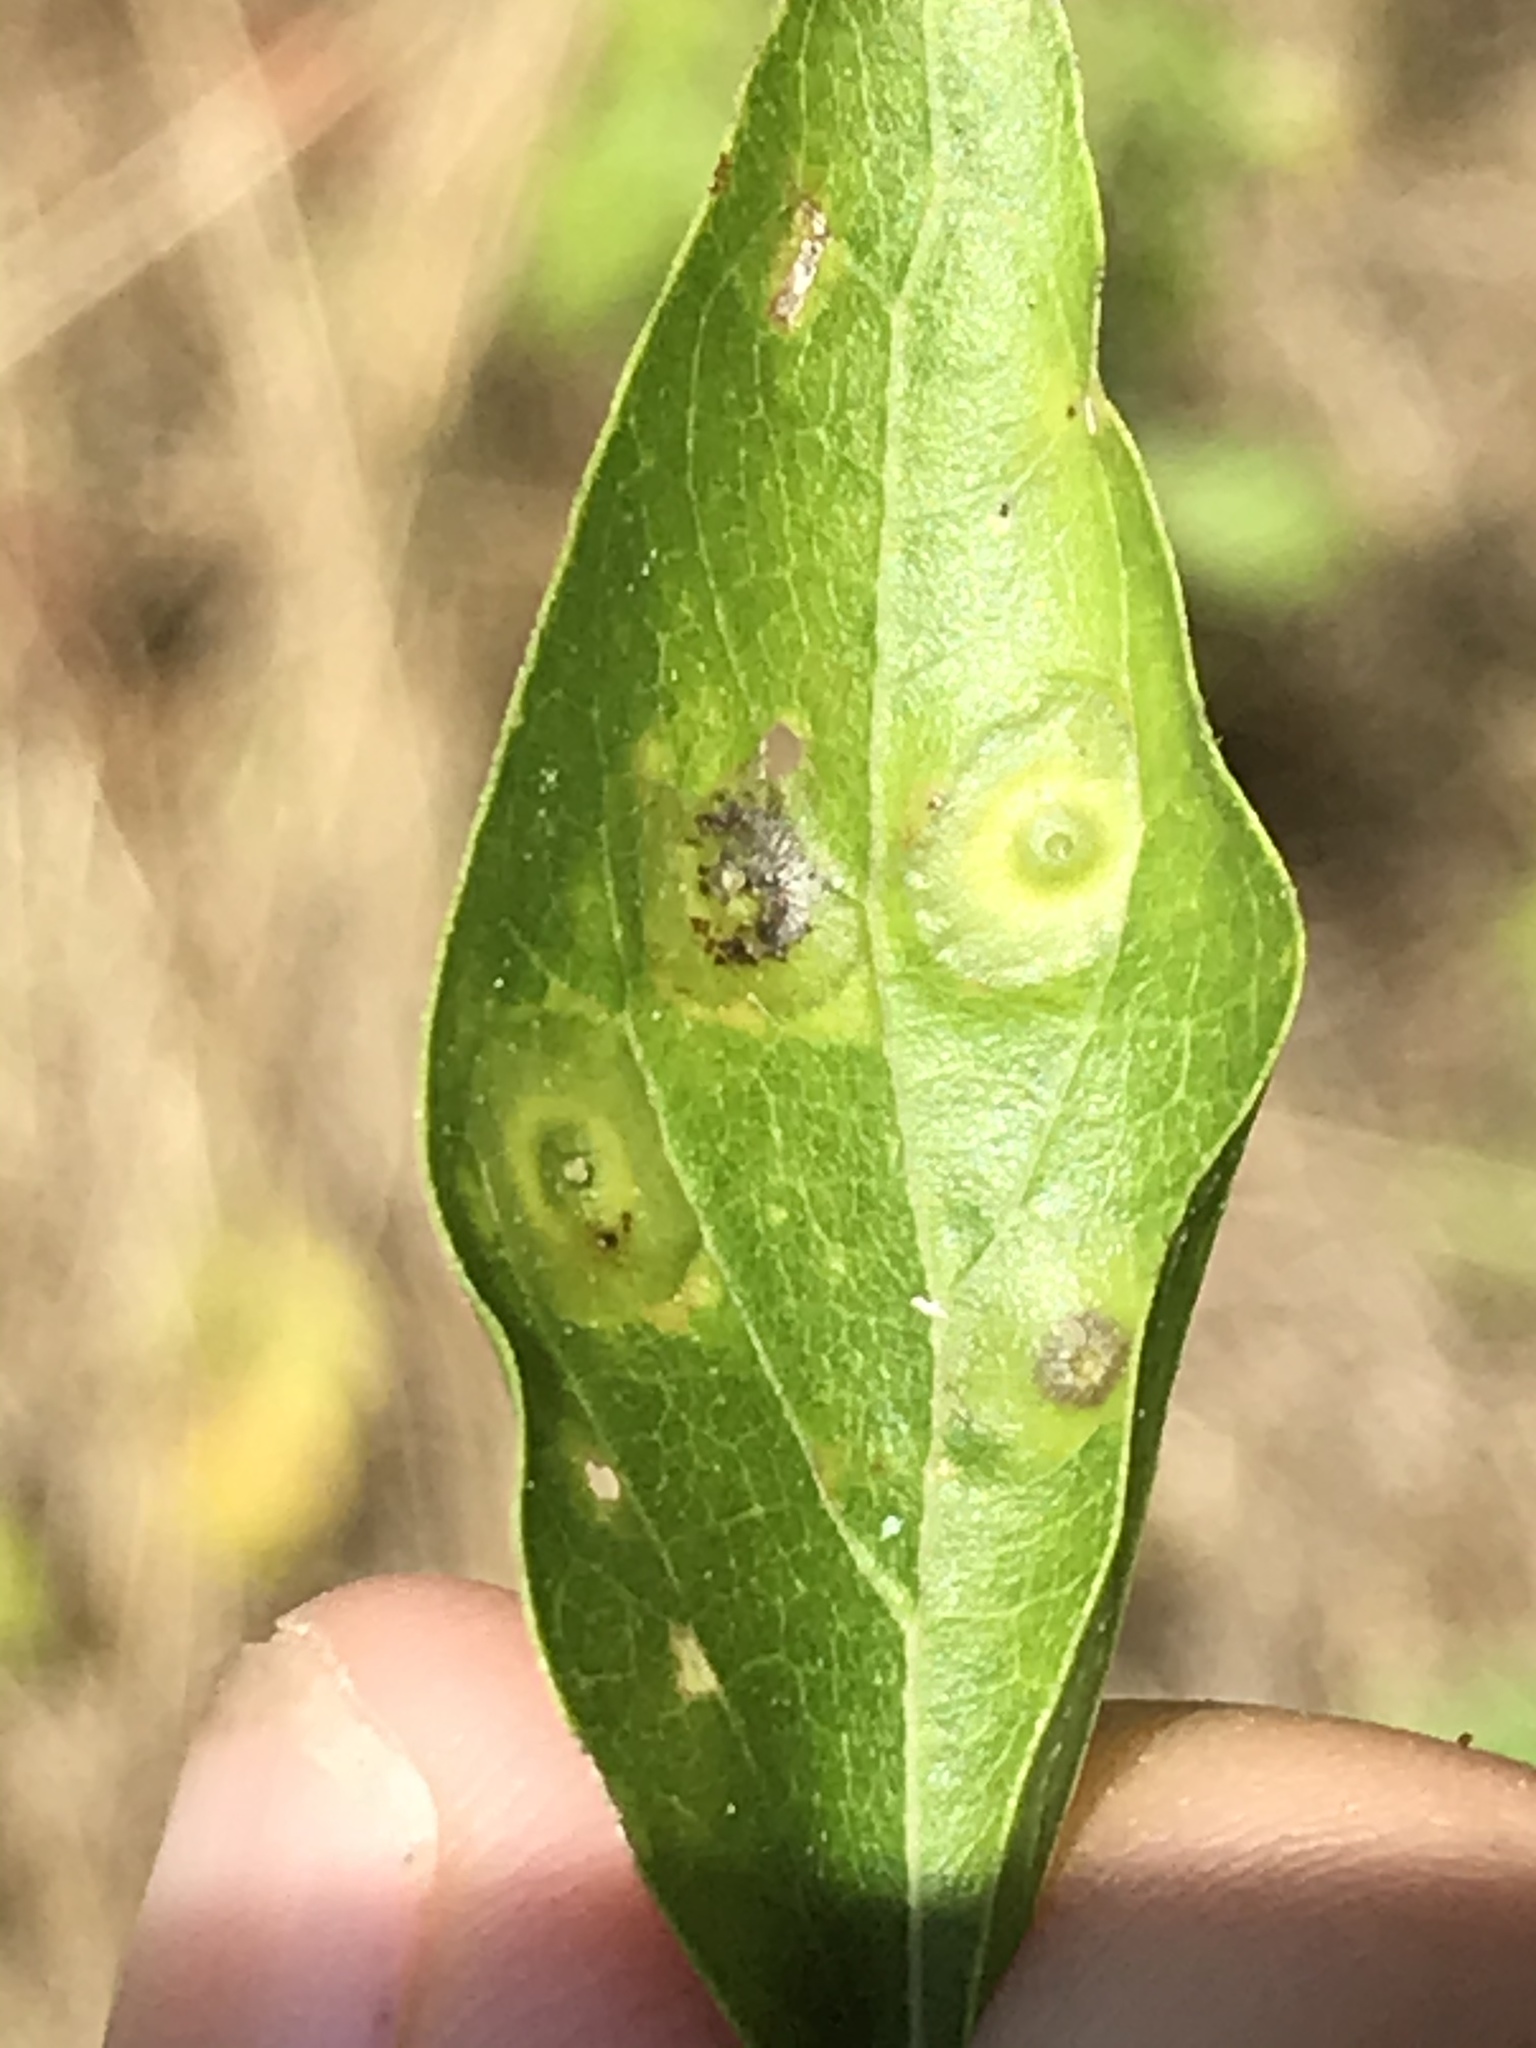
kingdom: Animalia
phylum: Arthropoda
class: Insecta
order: Hemiptera
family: Aphalaridae
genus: Pachypsylla
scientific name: Pachypsylla celtidisvesicula
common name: Hackberry blister gall psyllid
